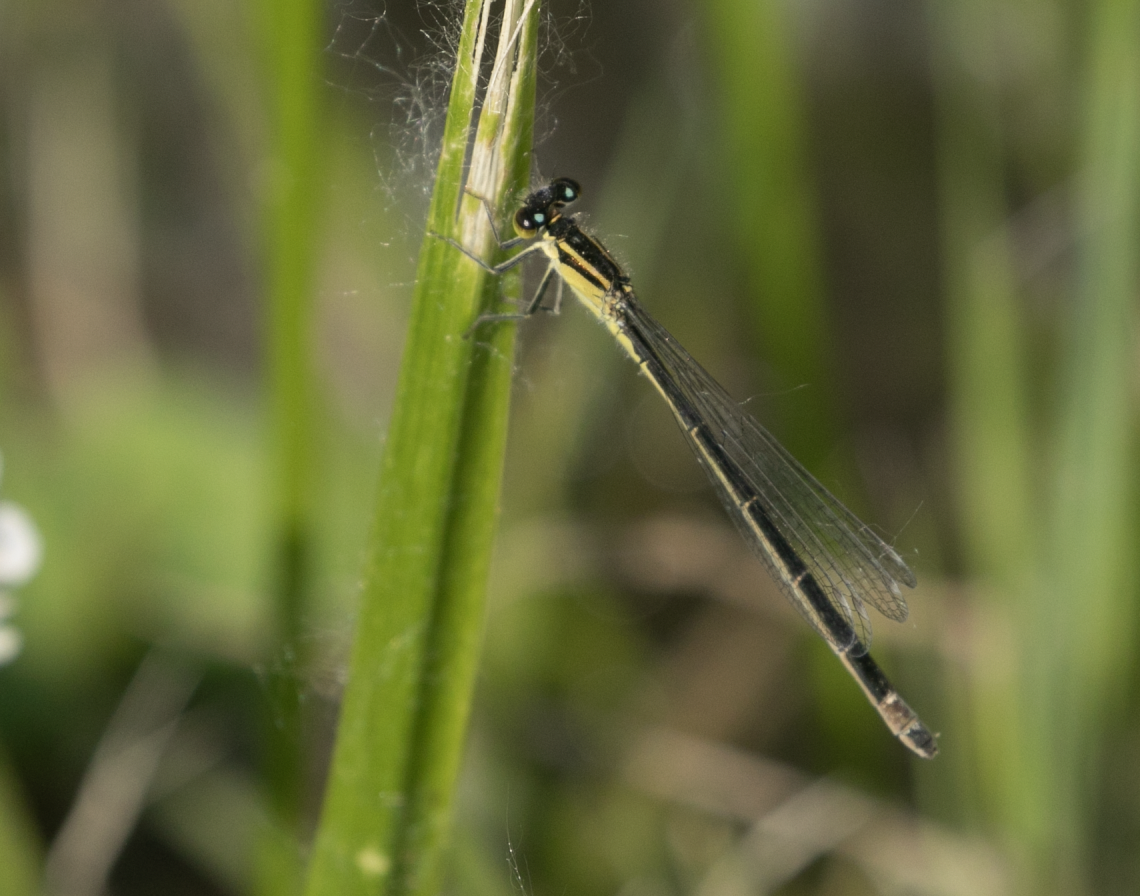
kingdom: Animalia
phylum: Arthropoda
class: Insecta
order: Odonata
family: Coenagrionidae
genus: Ischnura
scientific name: Ischnura elegans
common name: Blue-tailed damselfly
